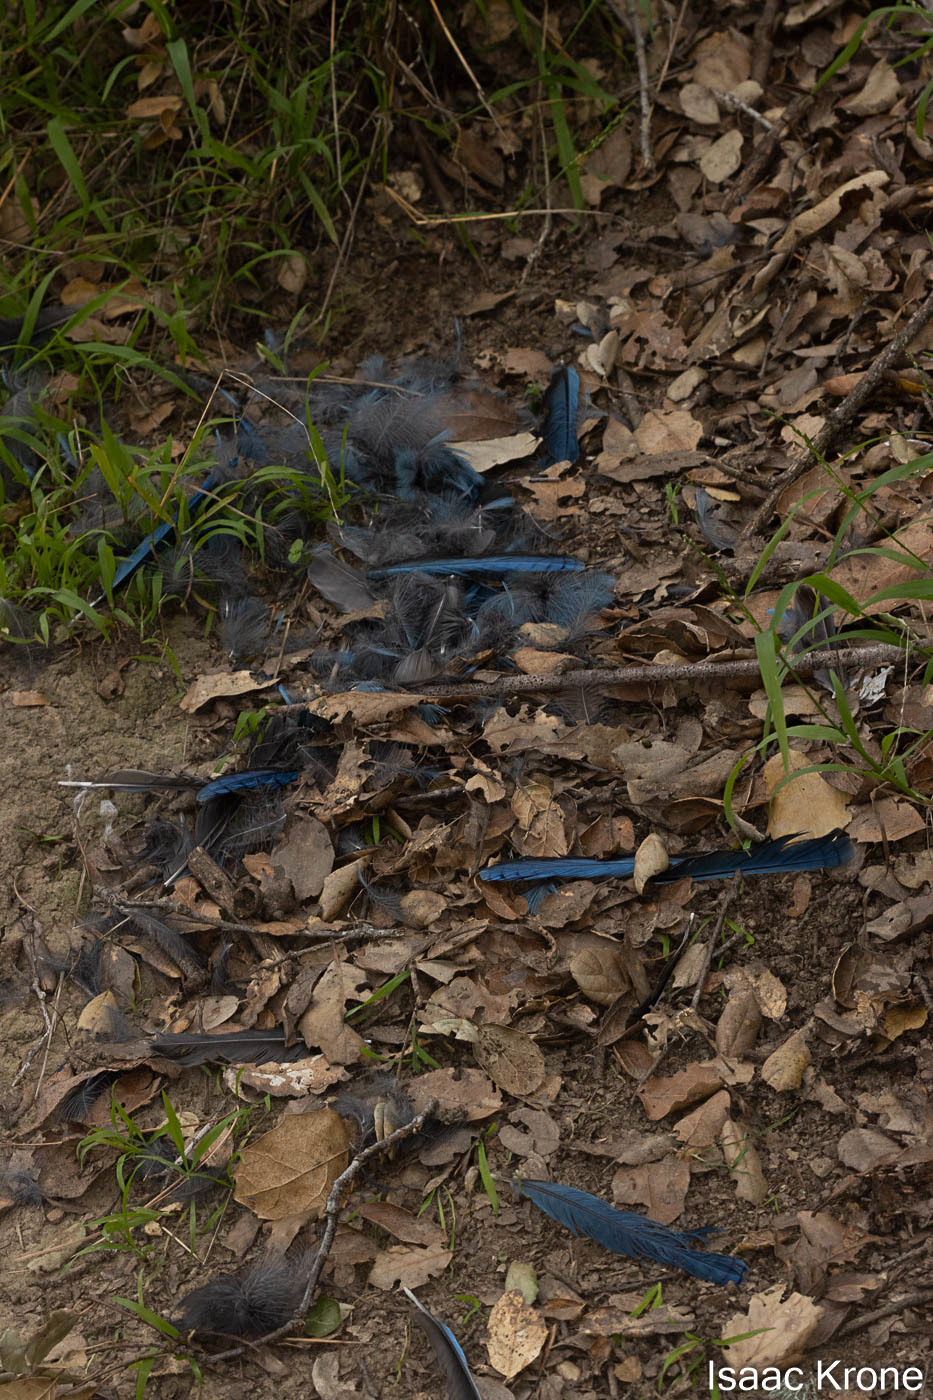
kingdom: Animalia
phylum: Chordata
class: Aves
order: Passeriformes
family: Corvidae
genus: Cyanocitta
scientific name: Cyanocitta stelleri
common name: Steller's jay
